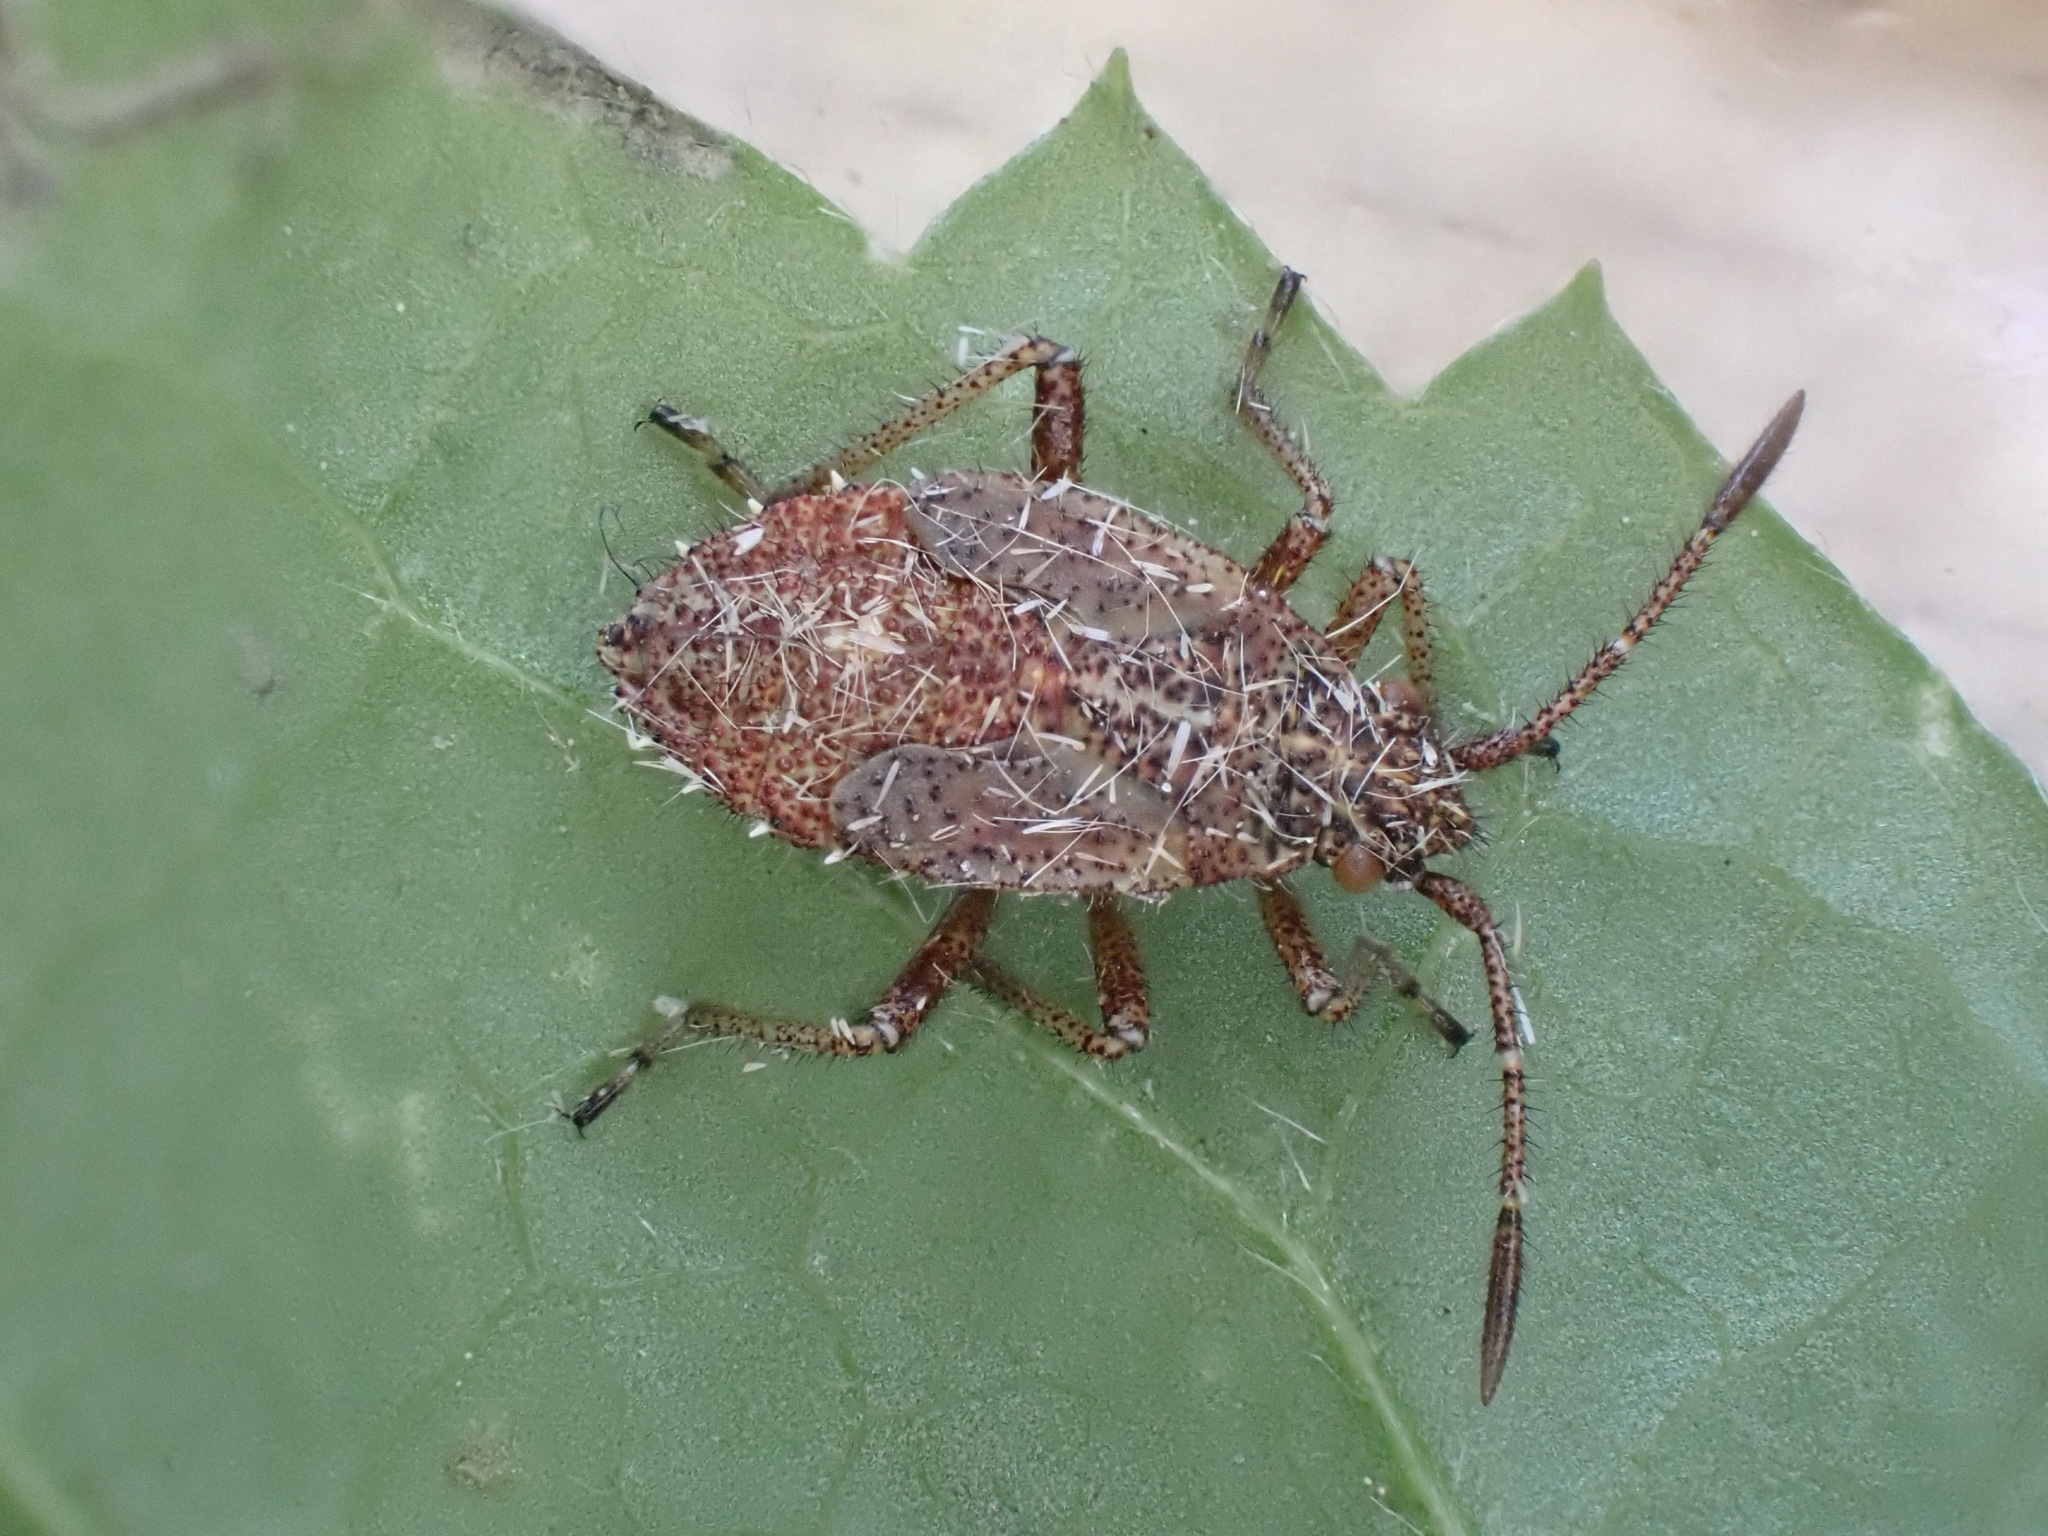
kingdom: Animalia
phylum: Arthropoda
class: Insecta
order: Hemiptera
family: Rhopalidae
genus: Corizus
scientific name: Corizus hyoscyami
